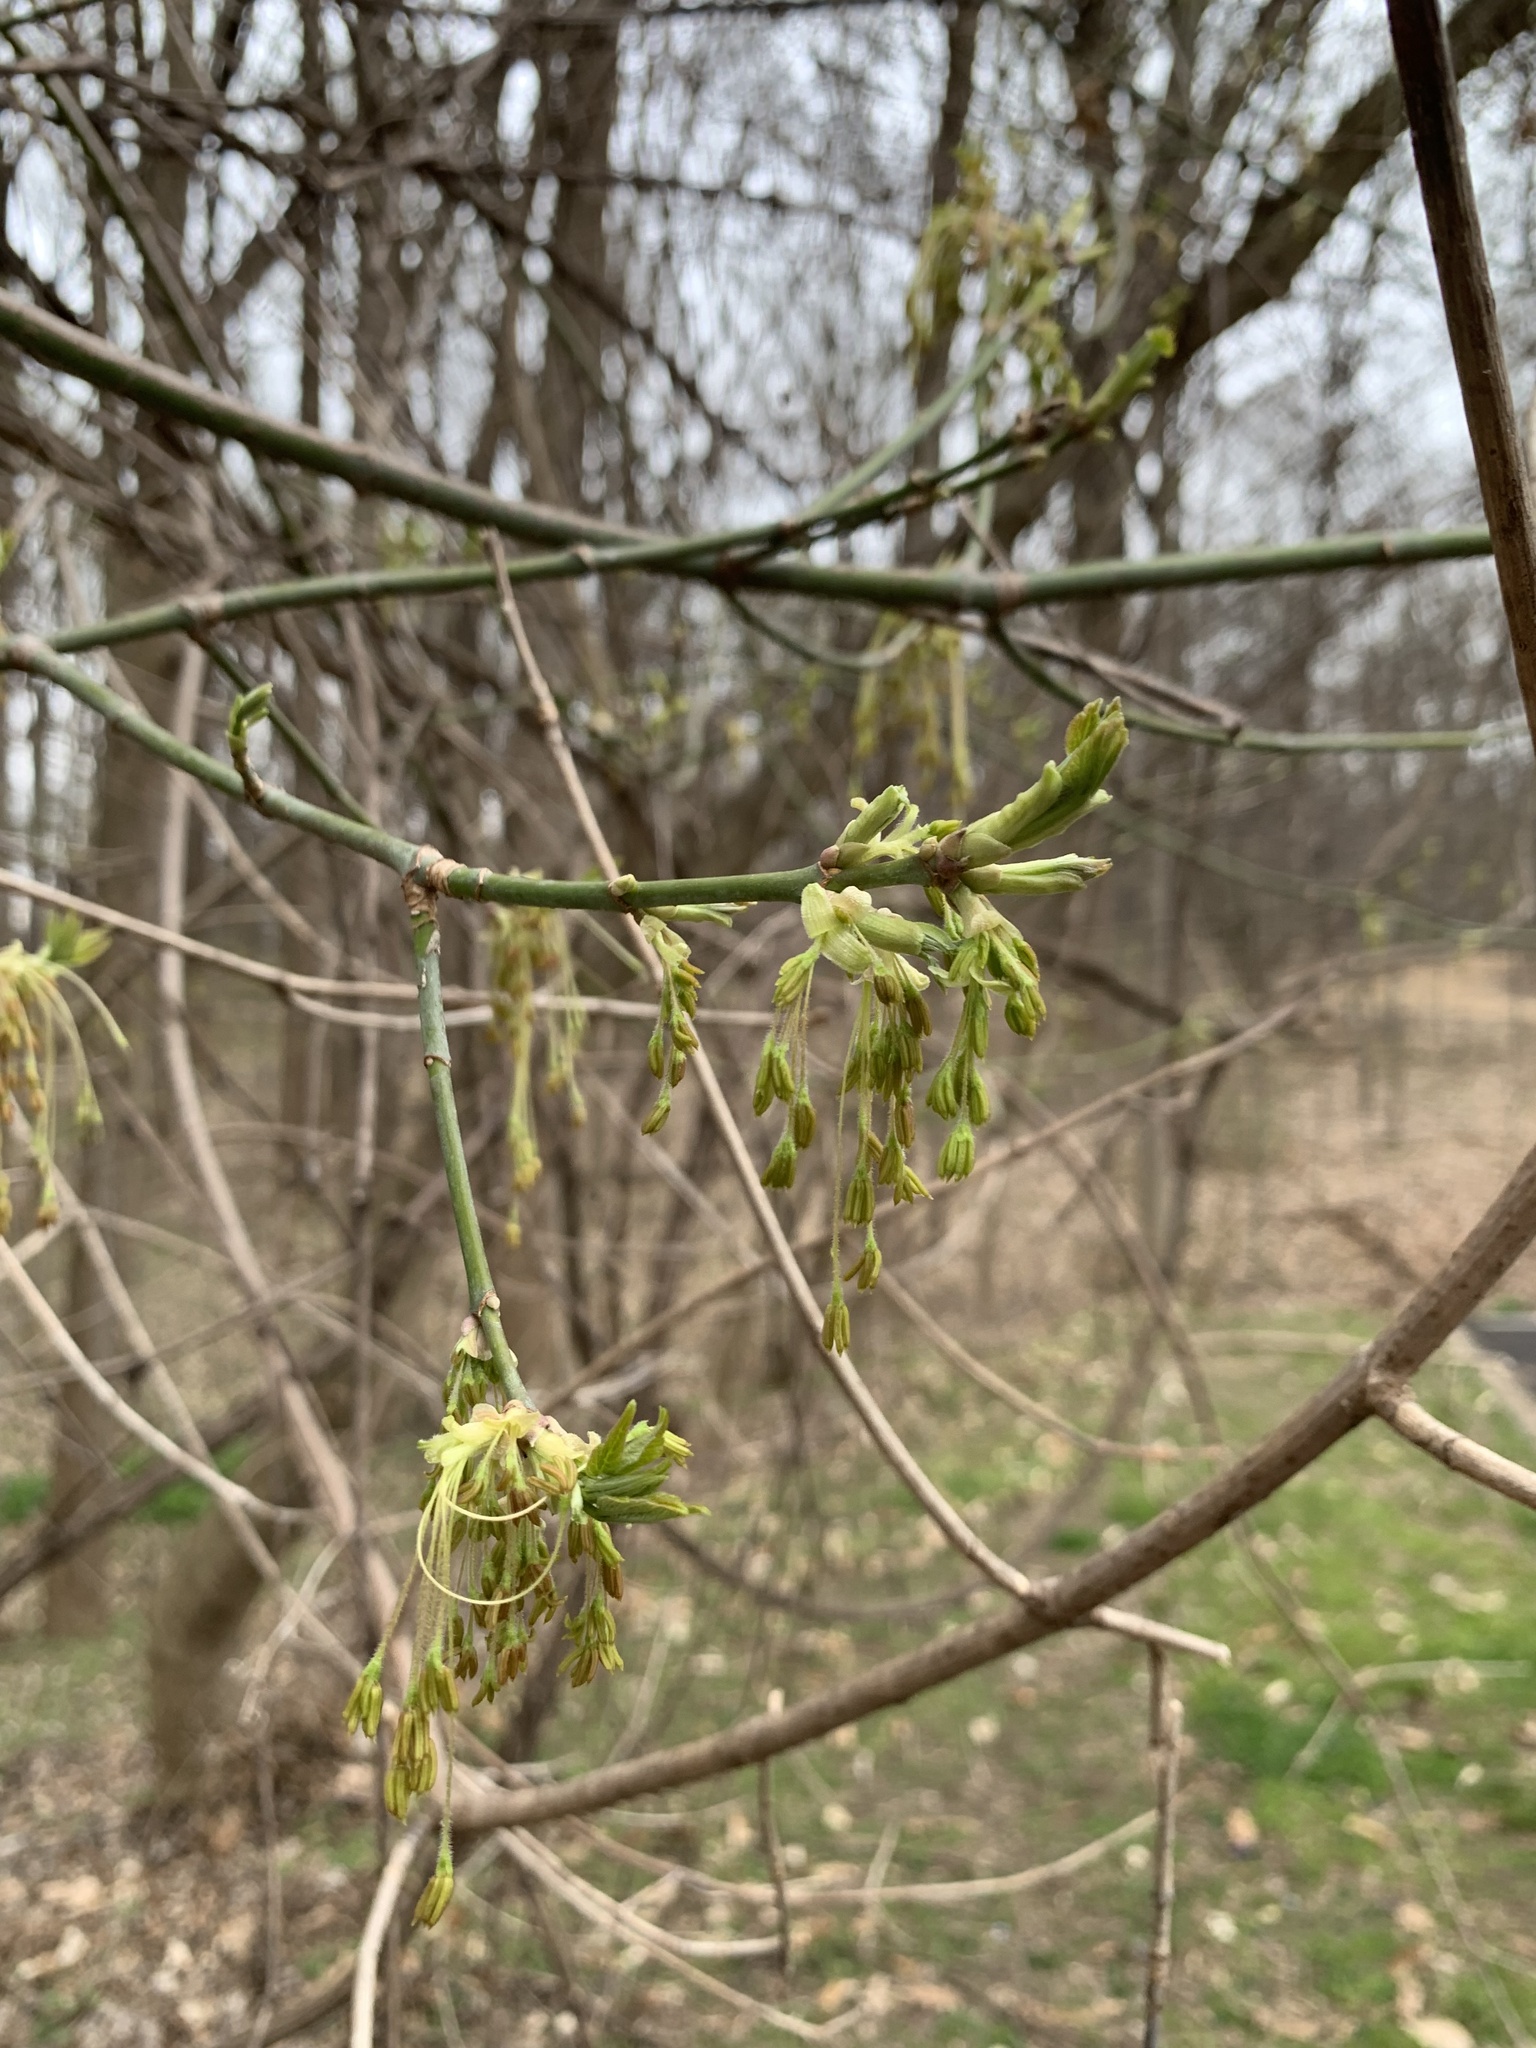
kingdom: Plantae
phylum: Tracheophyta
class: Magnoliopsida
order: Sapindales
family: Sapindaceae
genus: Acer
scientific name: Acer negundo
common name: Ashleaf maple
